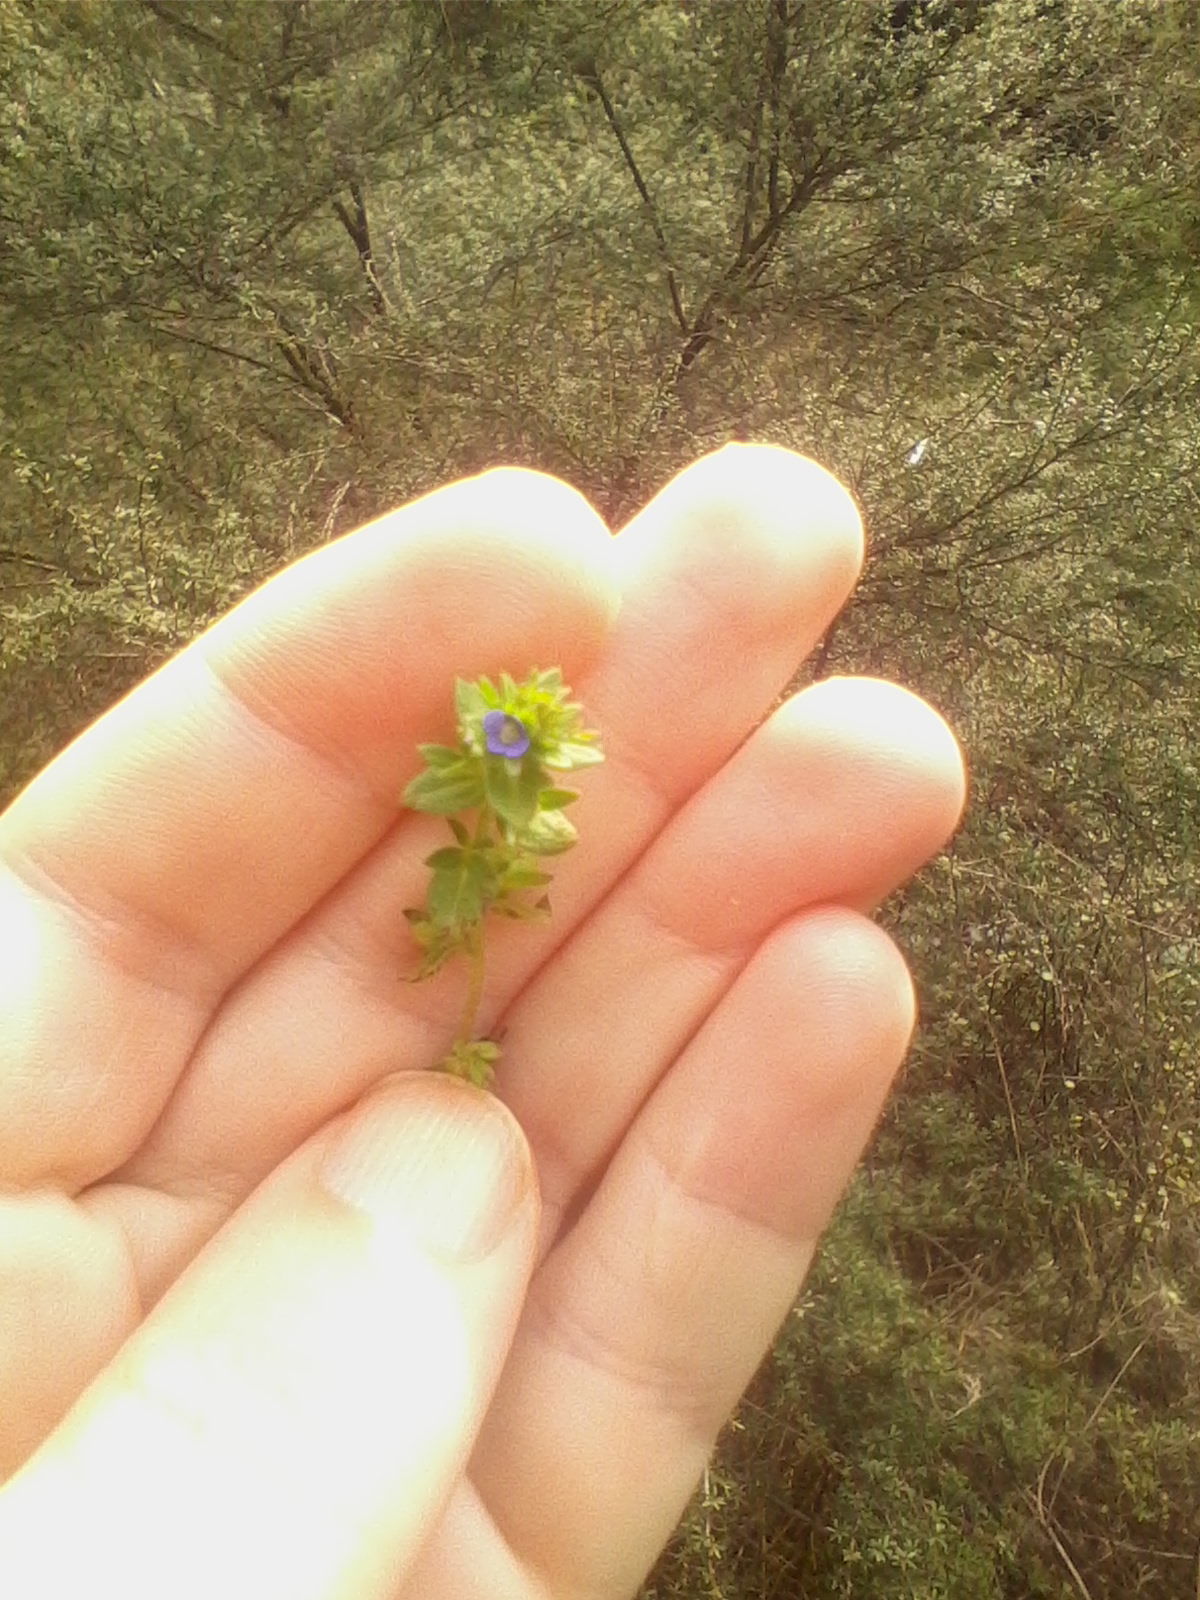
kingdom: Plantae
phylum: Tracheophyta
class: Magnoliopsida
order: Lamiales
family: Plantaginaceae
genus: Veronica
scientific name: Veronica arvensis
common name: Corn speedwell
